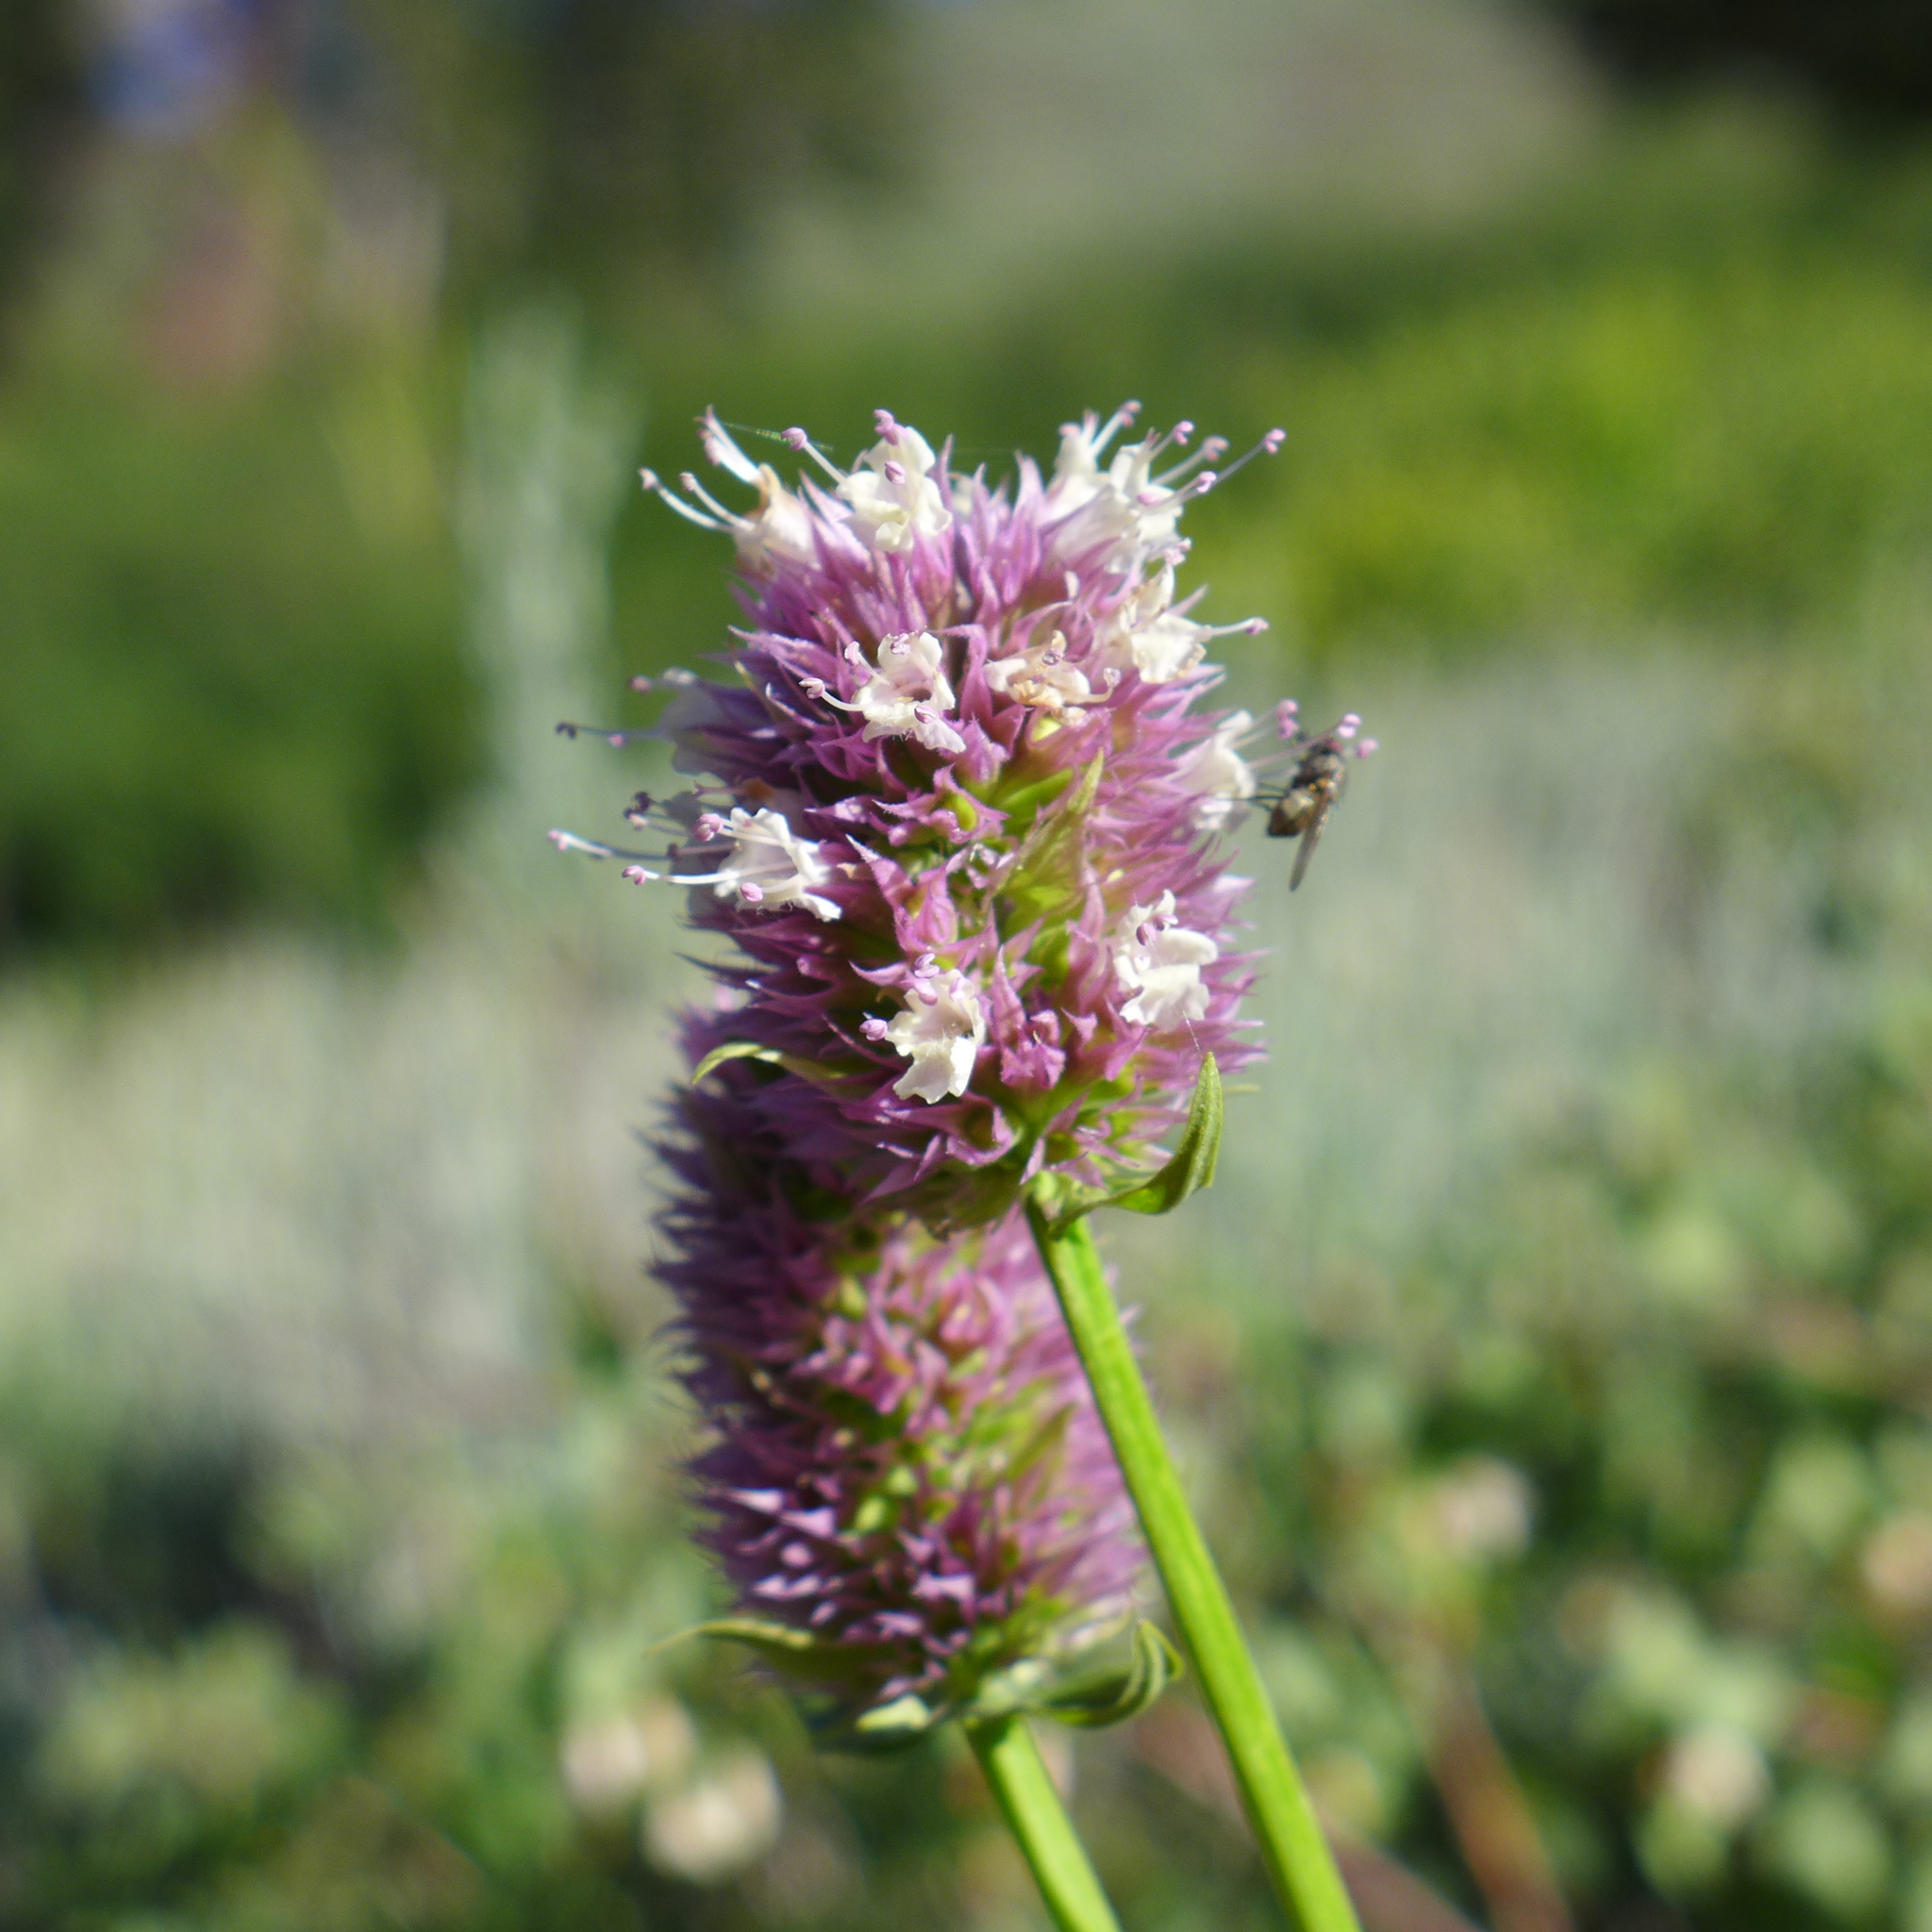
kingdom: Plantae
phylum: Tracheophyta
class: Magnoliopsida
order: Lamiales
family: Lamiaceae
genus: Agastache
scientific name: Agastache urticifolia
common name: Horsemint giant hyssop
